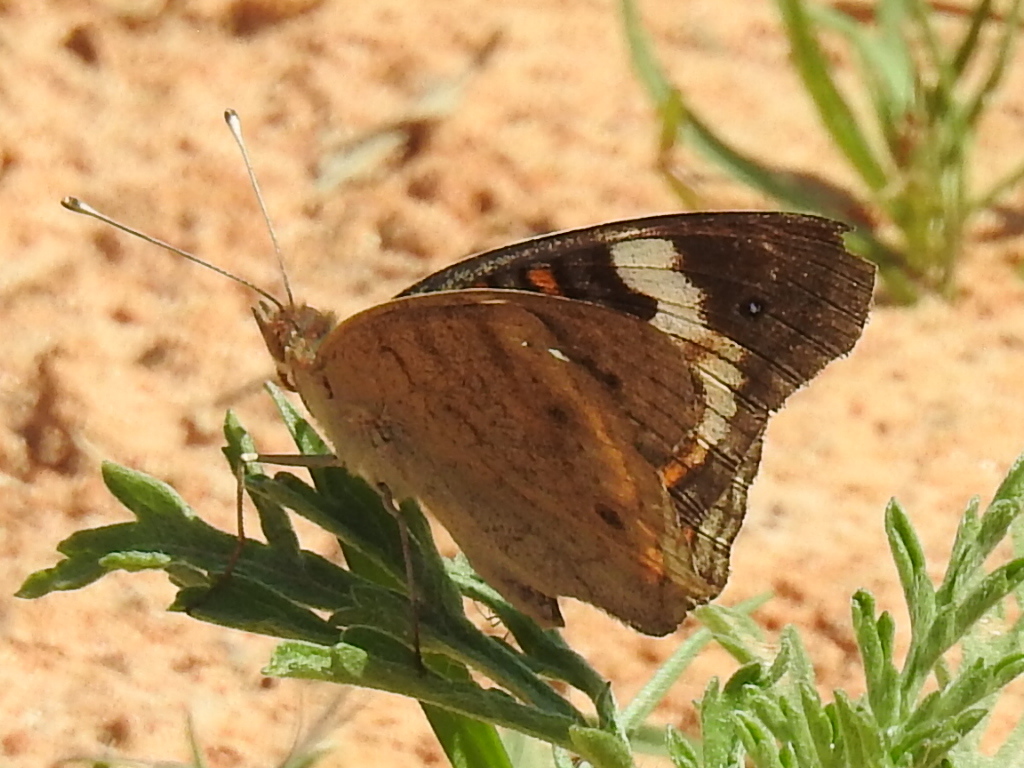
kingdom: Animalia
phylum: Arthropoda
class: Insecta
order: Lepidoptera
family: Nymphalidae
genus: Junonia
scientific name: Junonia coenia
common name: Common buckeye
